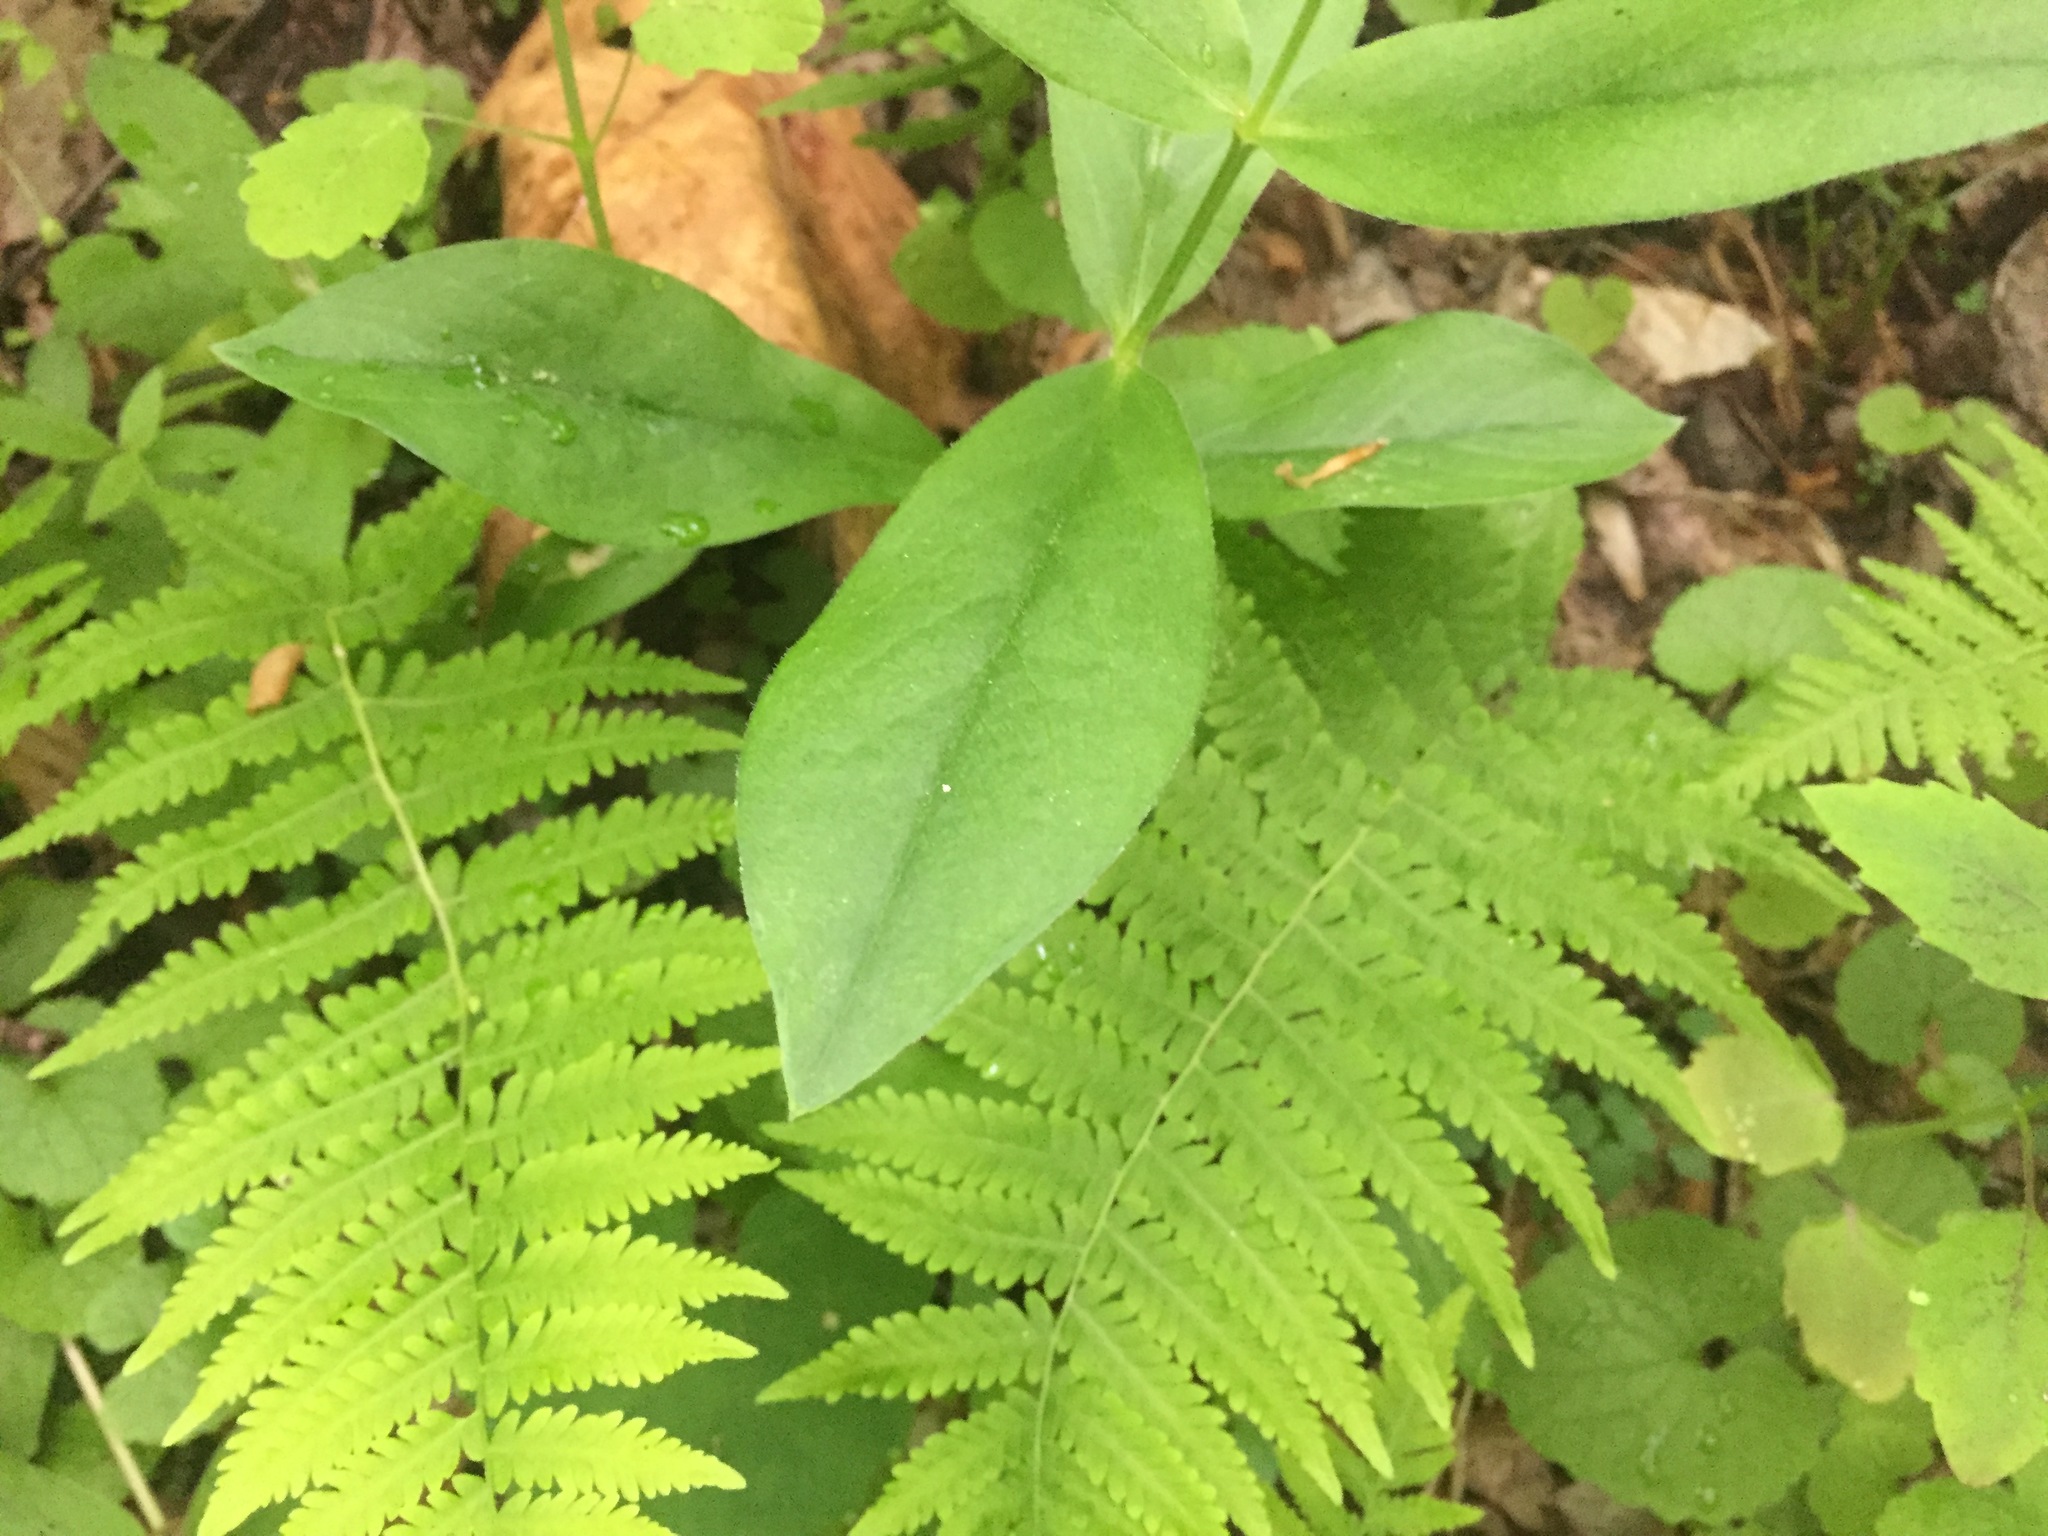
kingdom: Plantae
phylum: Tracheophyta
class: Magnoliopsida
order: Caryophyllales
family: Caryophyllaceae
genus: Stellaria
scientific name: Stellaria pubera
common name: Star chickweed
